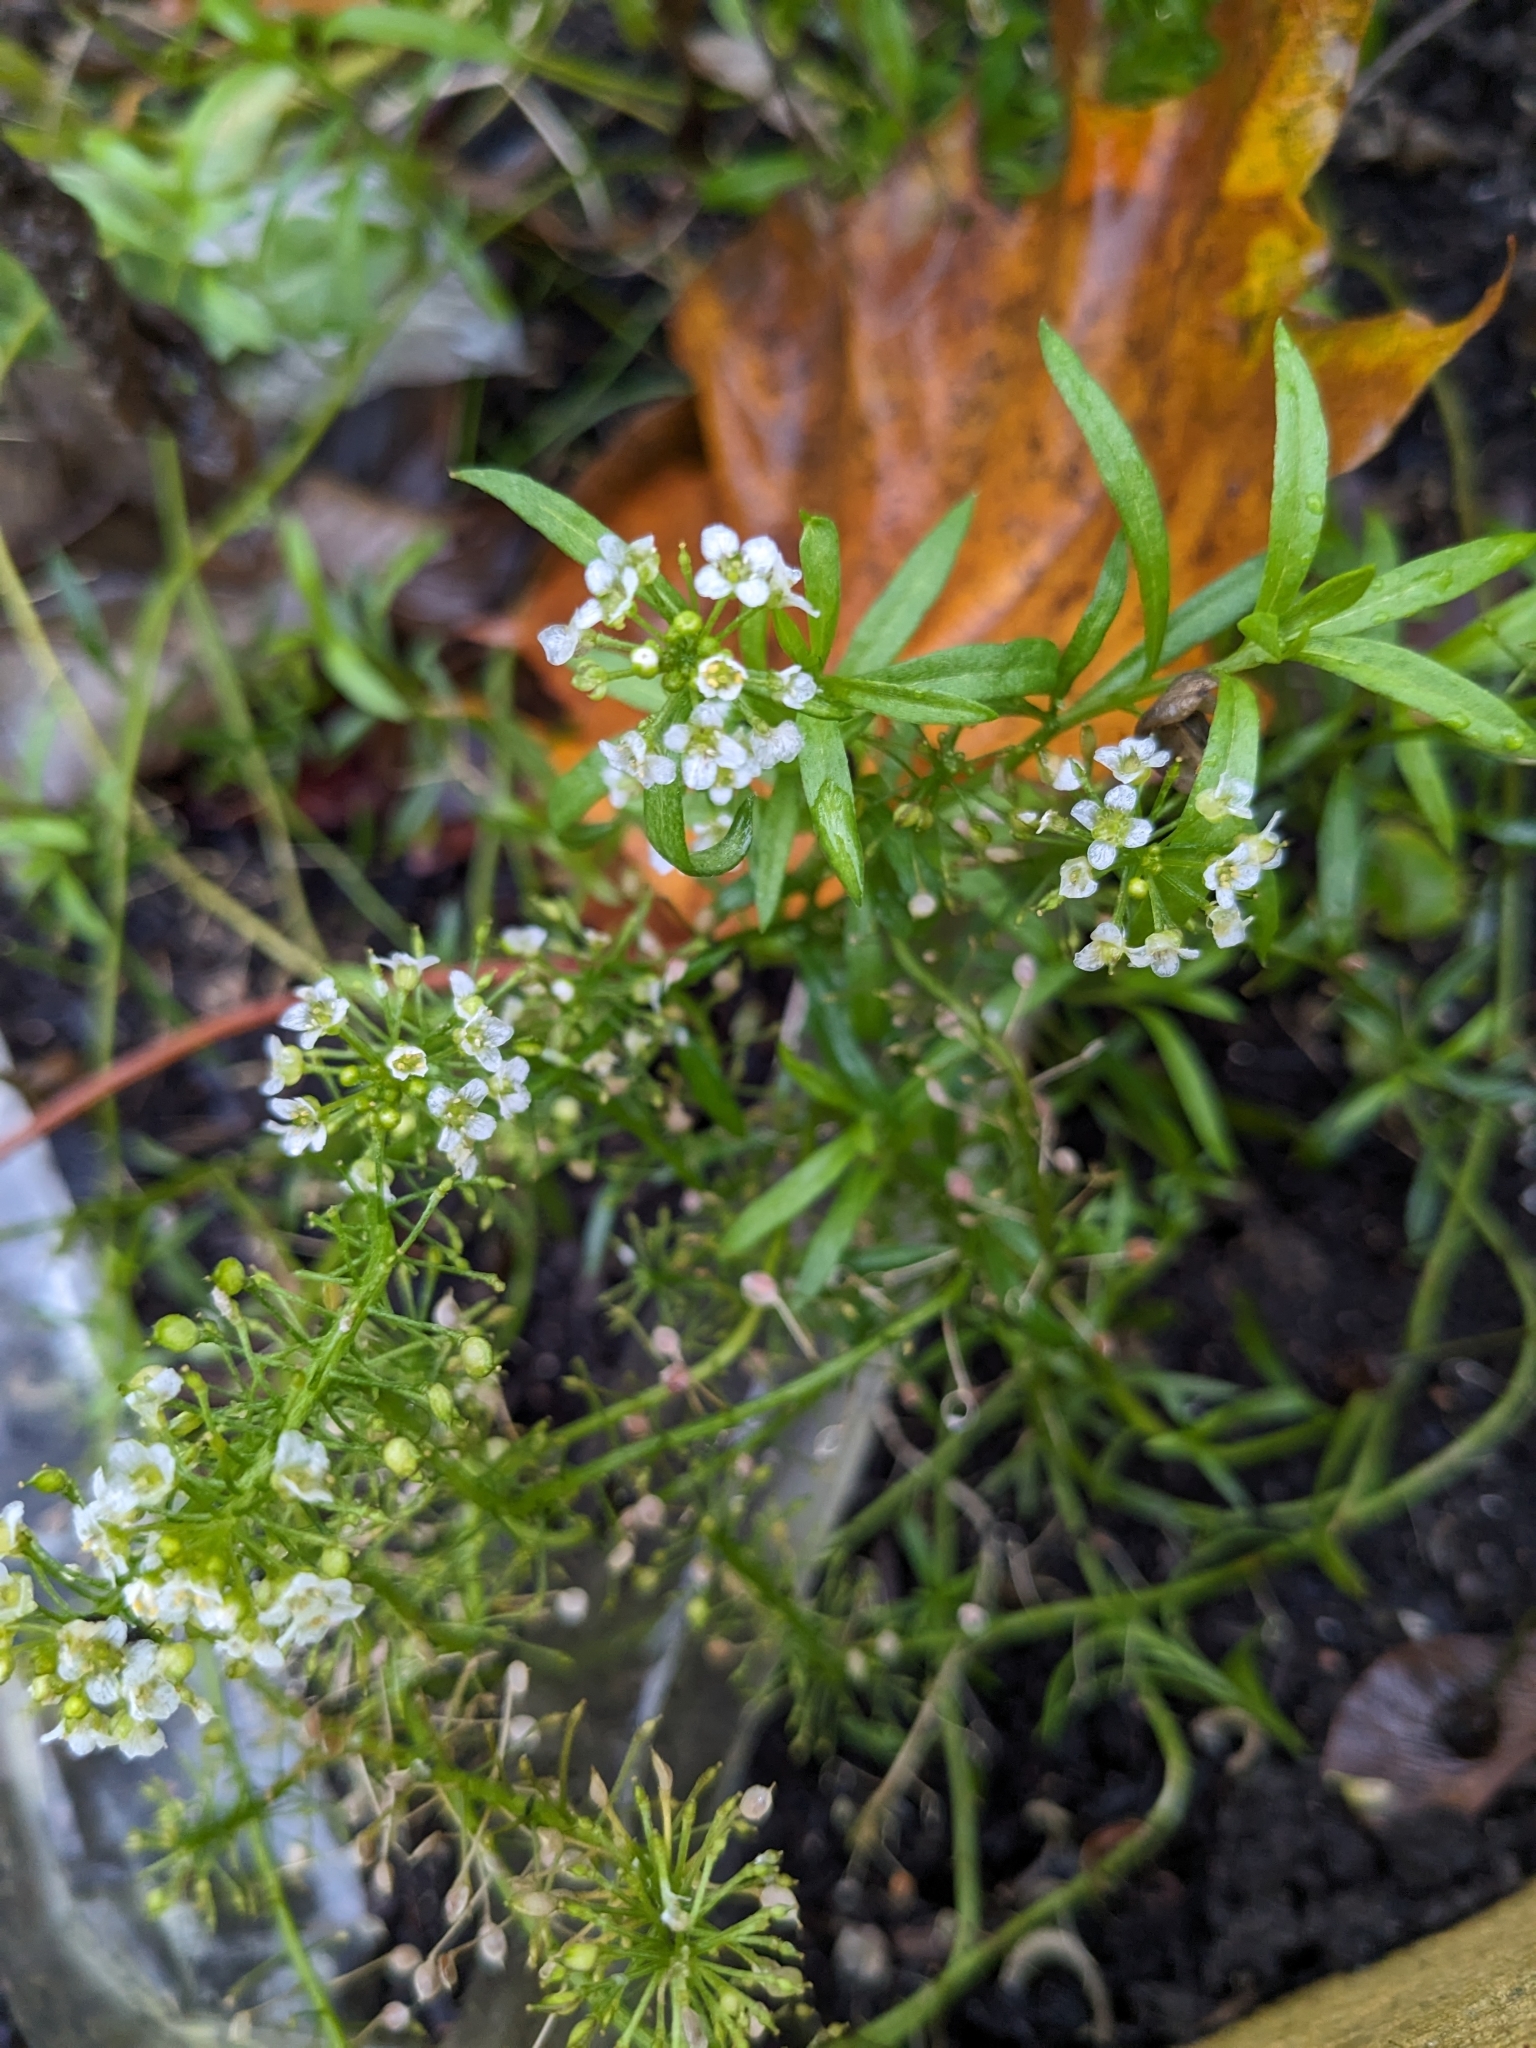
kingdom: Plantae
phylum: Tracheophyta
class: Magnoliopsida
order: Brassicales
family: Brassicaceae
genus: Lobularia
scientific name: Lobularia maritima
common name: Sweet alison
